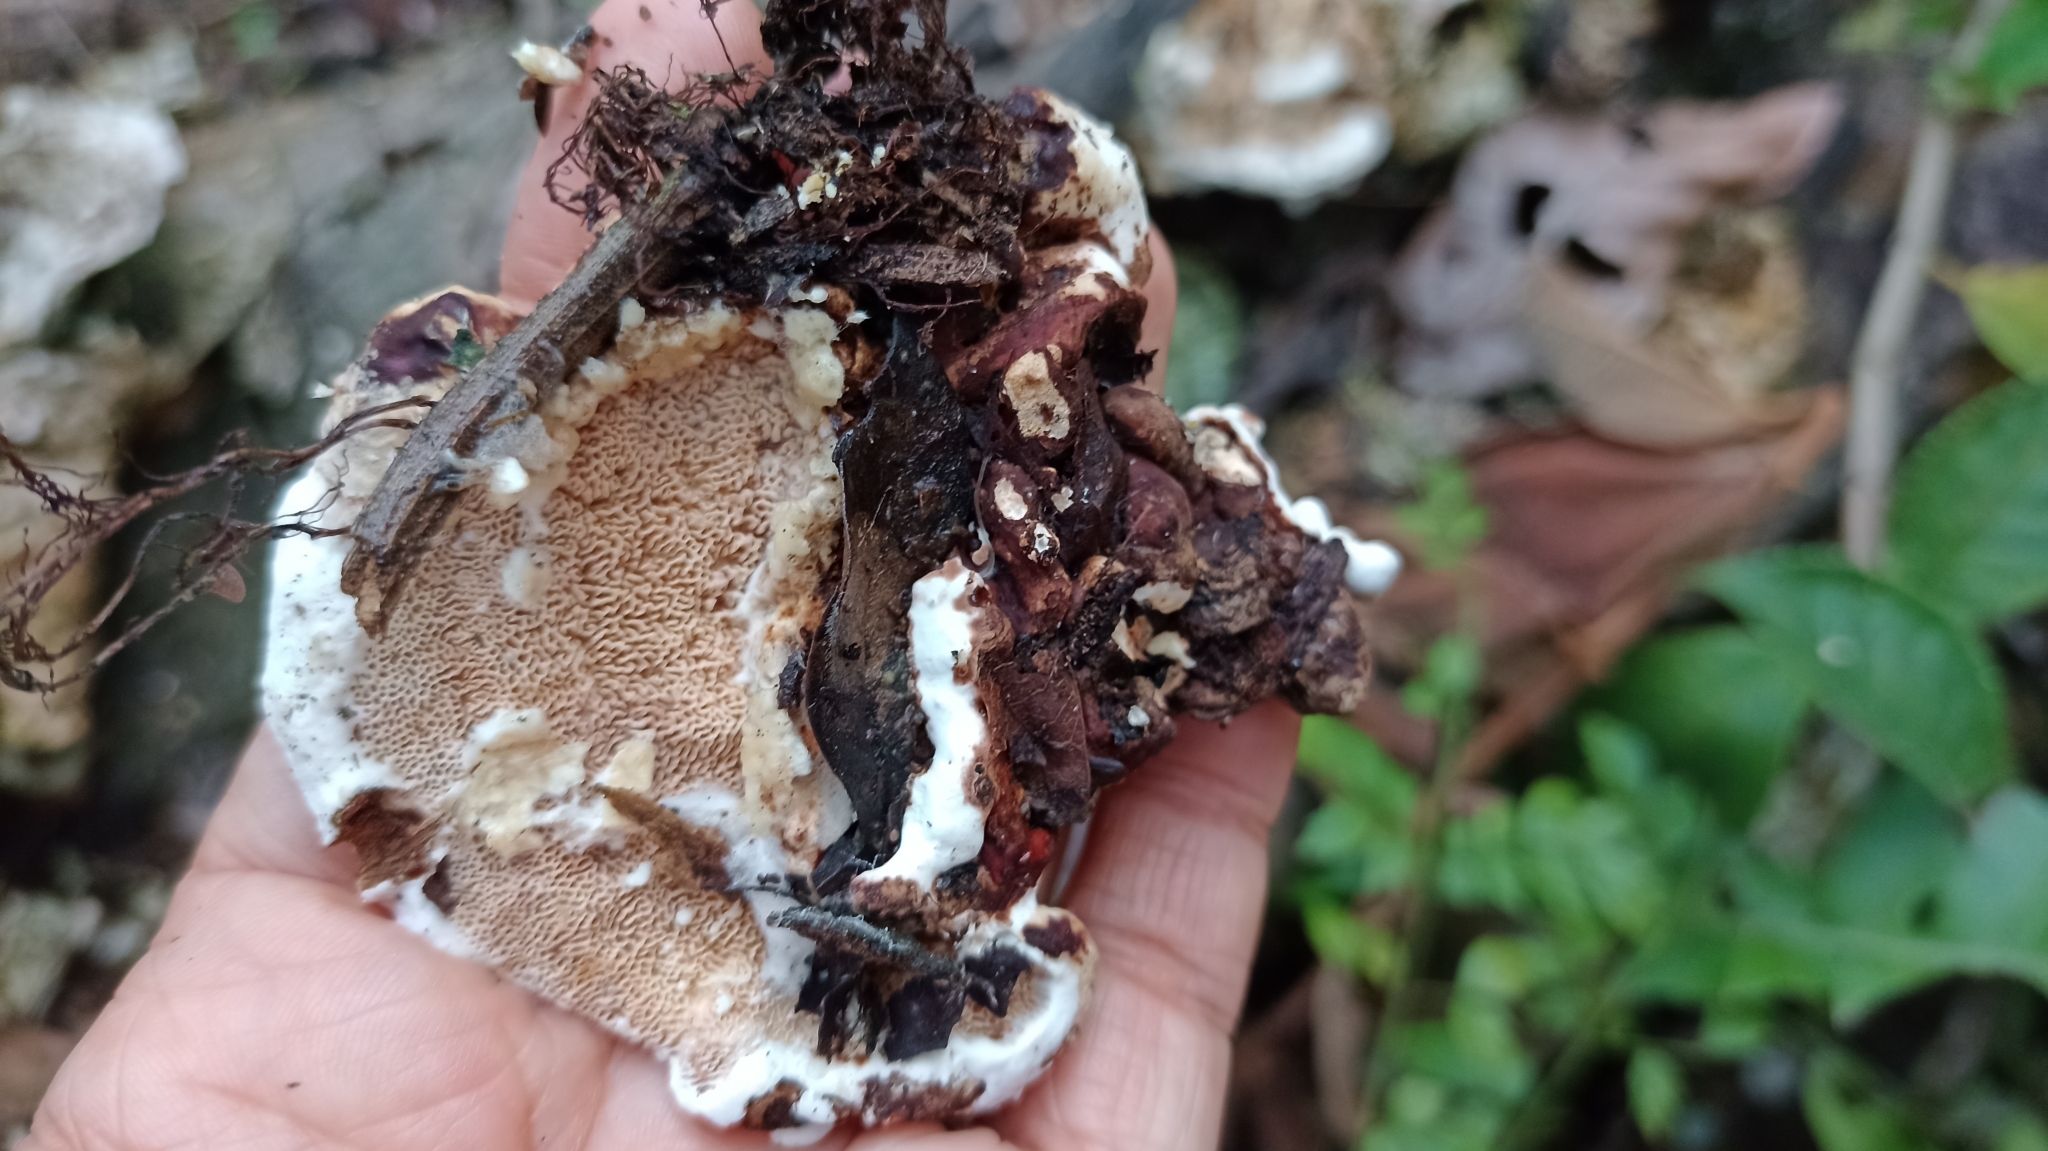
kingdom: Fungi
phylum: Basidiomycota
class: Agaricomycetes
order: Polyporales
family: Polyporaceae
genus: Earliella
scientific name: Earliella scabrosa
